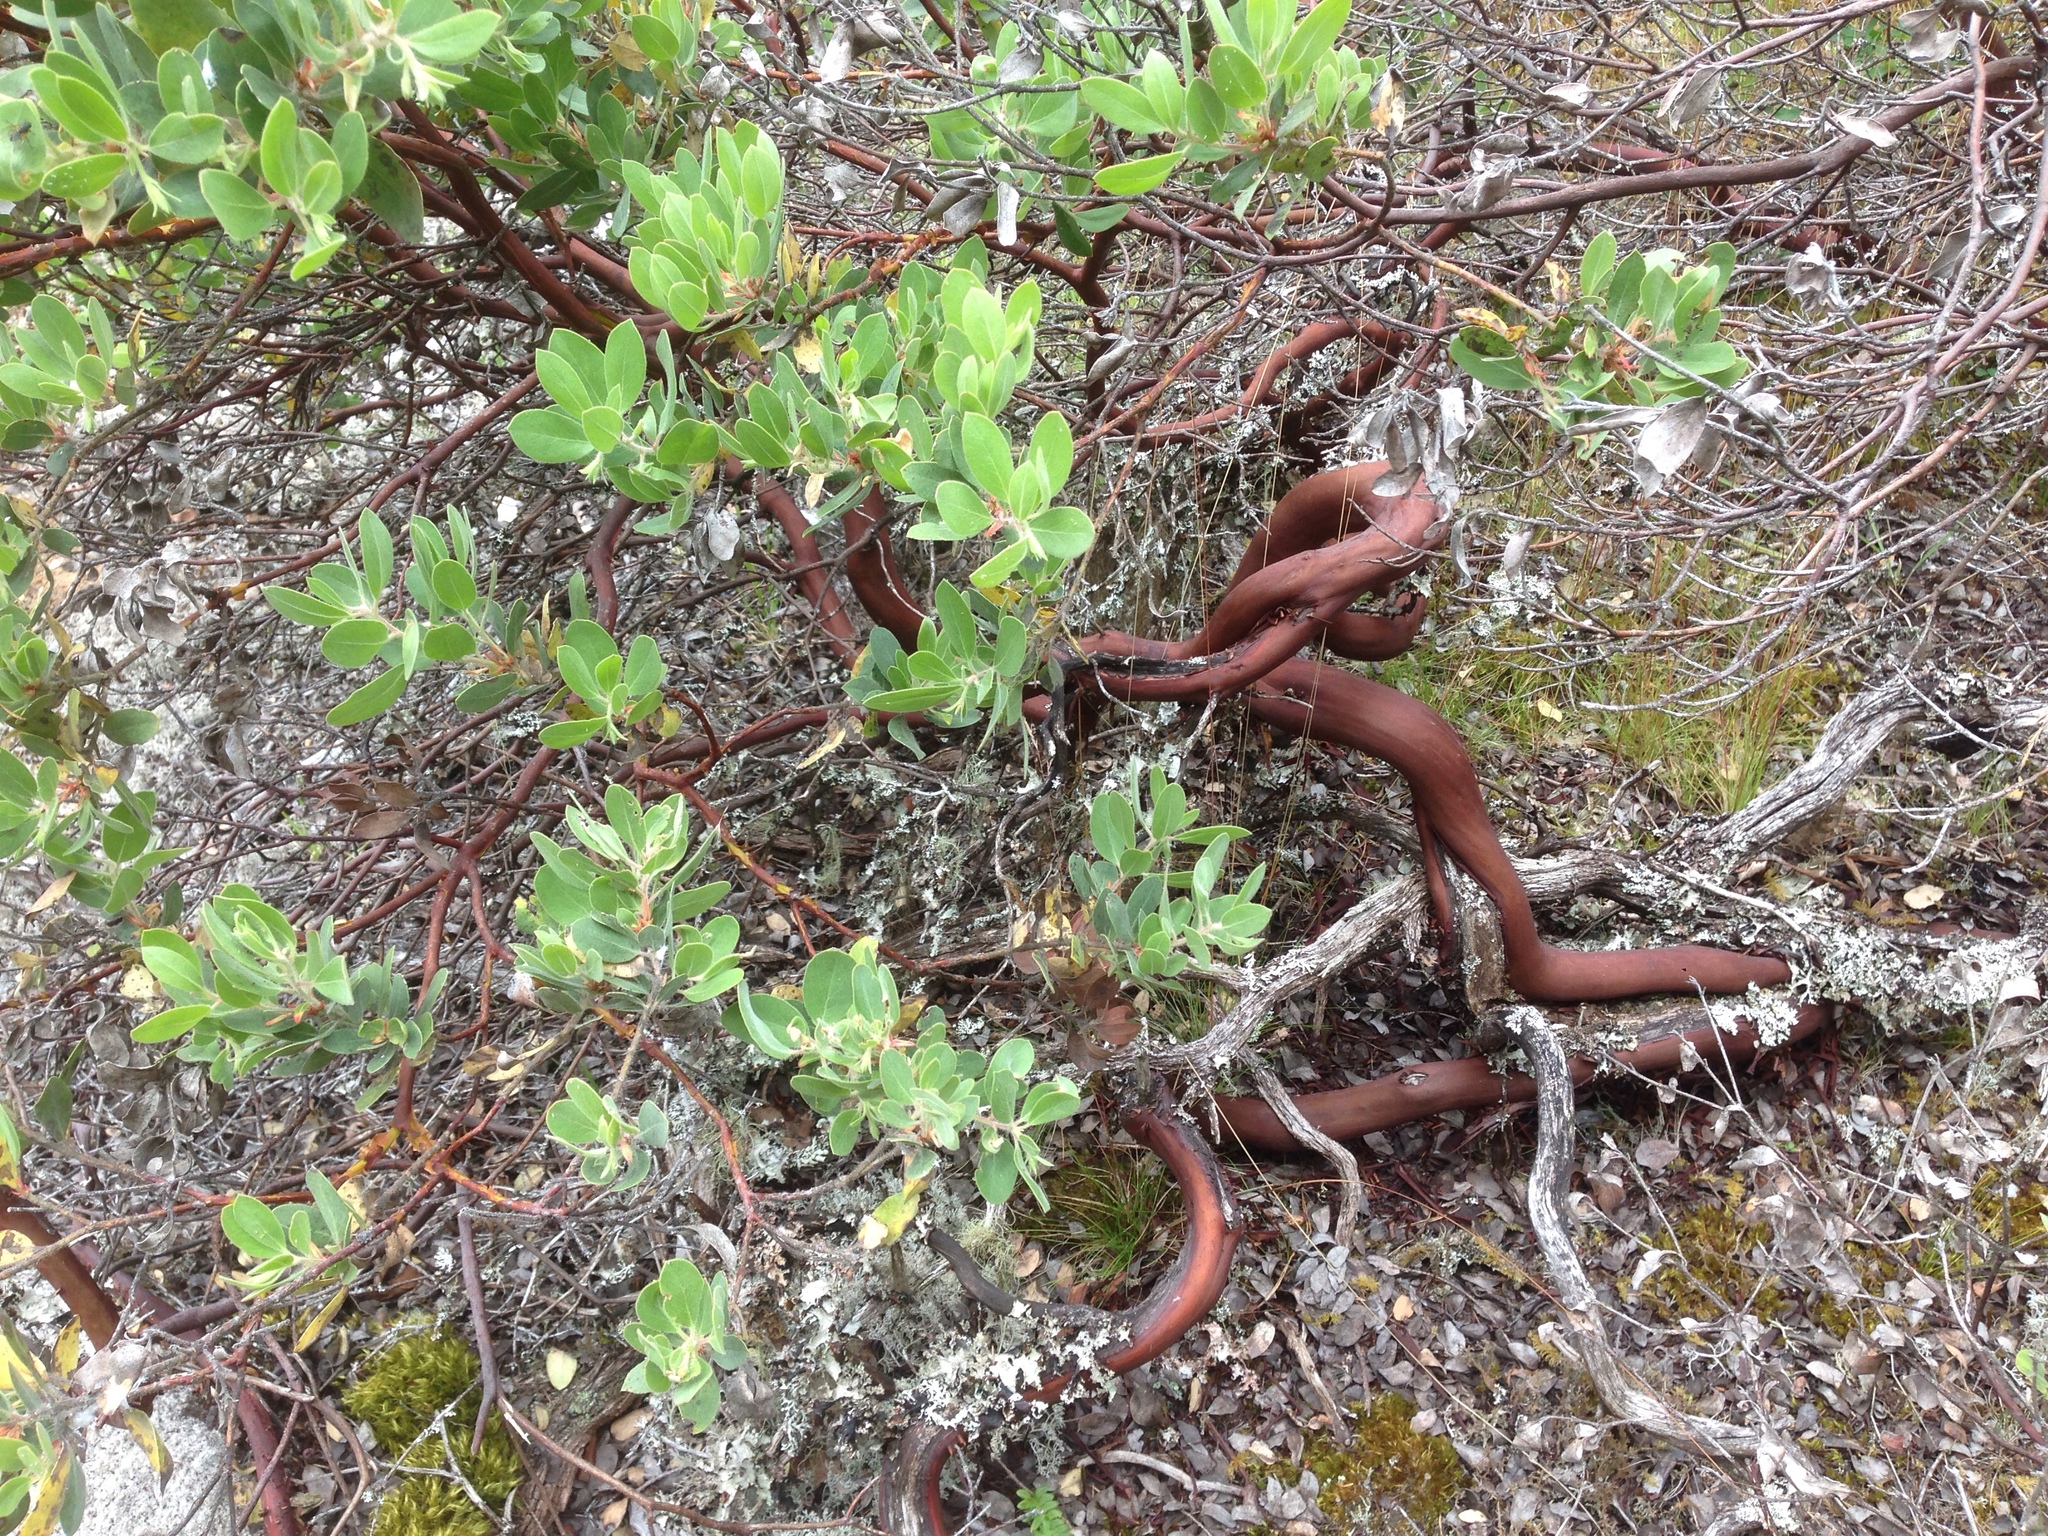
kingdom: Plantae
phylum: Tracheophyta
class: Magnoliopsida
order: Ericales
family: Ericaceae
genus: Arctostaphylos
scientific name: Arctostaphylos columbiana
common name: Bristly bearberry
